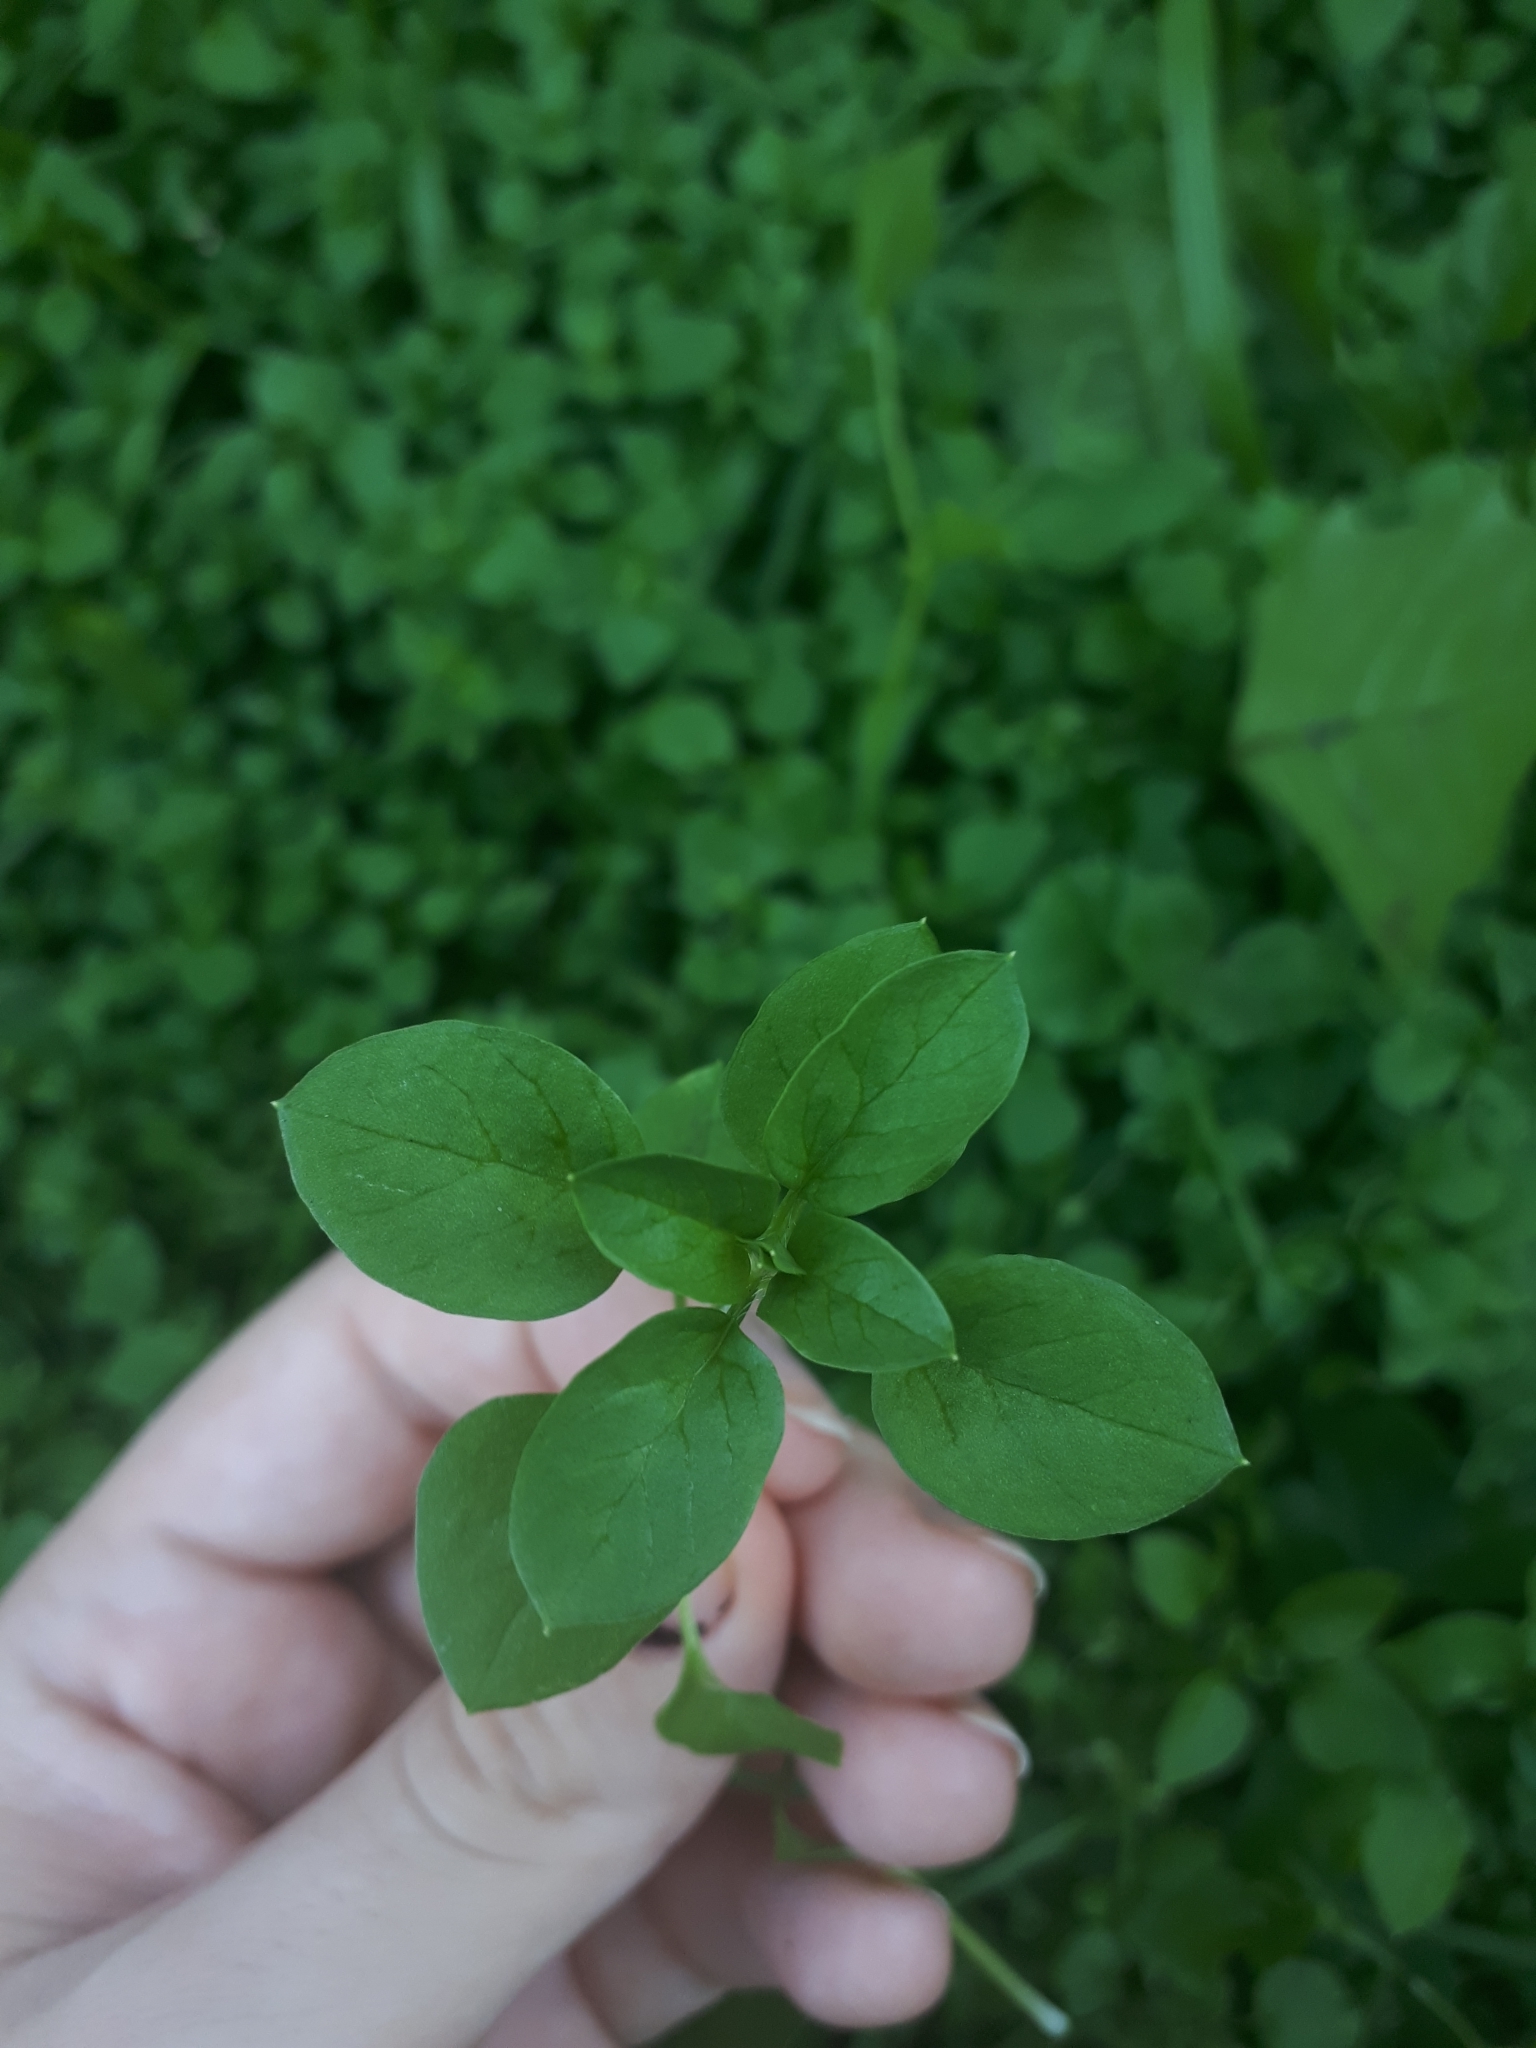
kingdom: Plantae
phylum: Tracheophyta
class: Magnoliopsida
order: Caryophyllales
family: Caryophyllaceae
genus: Stellaria
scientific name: Stellaria media
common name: Common chickweed
